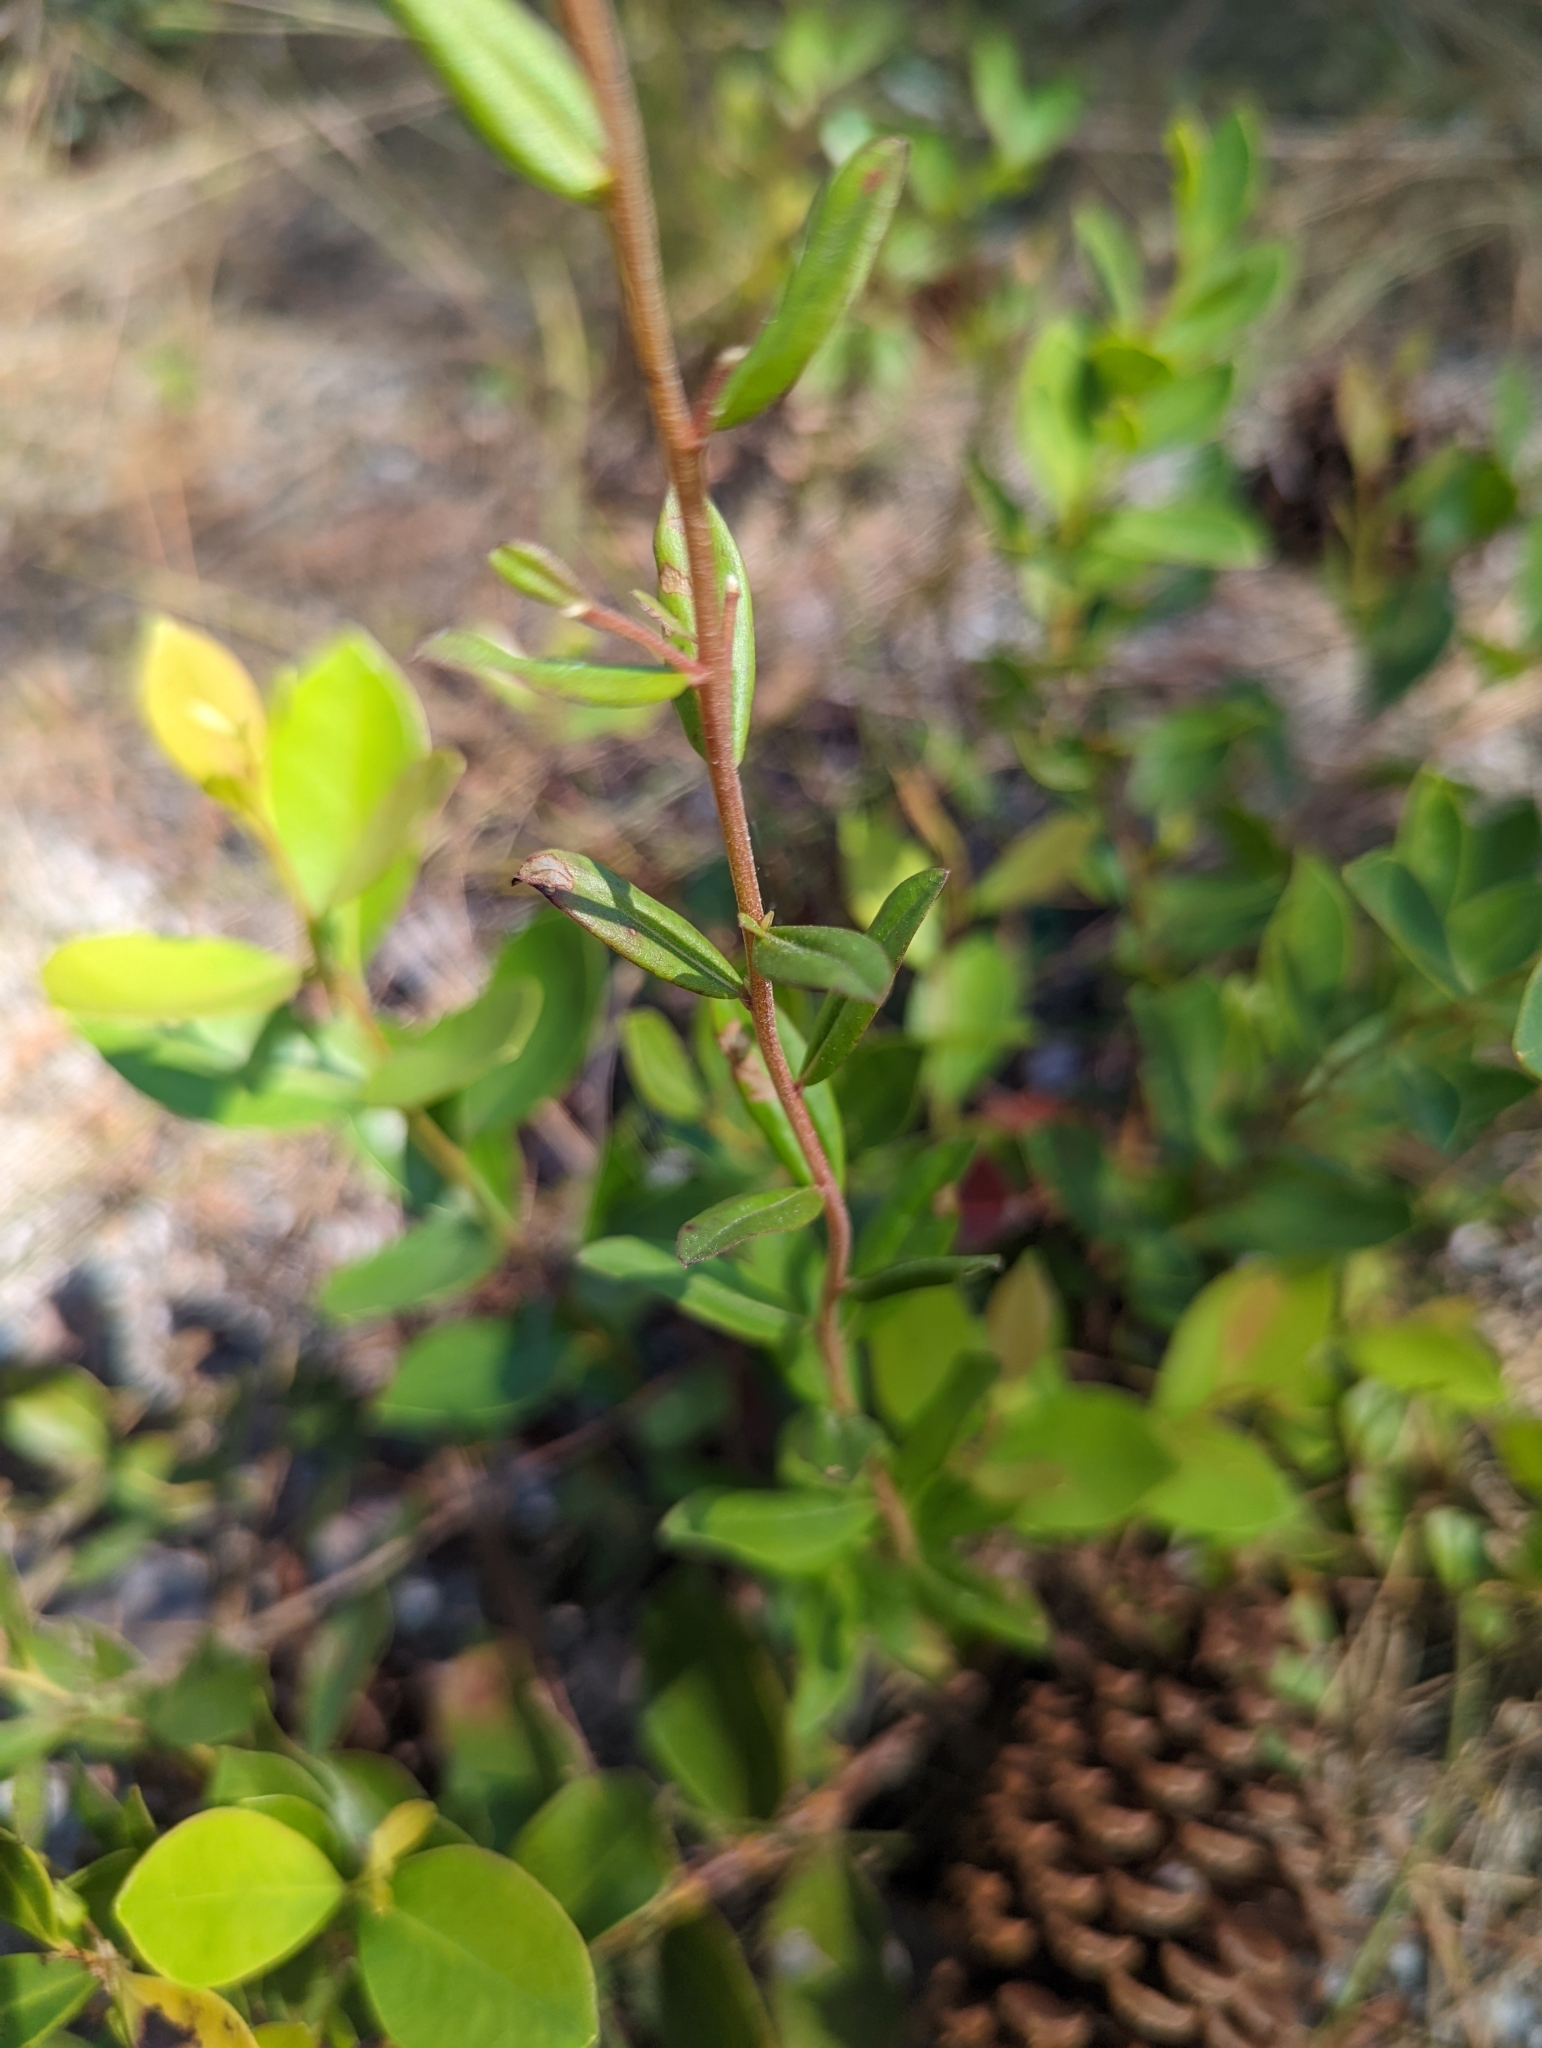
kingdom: Plantae
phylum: Tracheophyta
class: Magnoliopsida
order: Asterales
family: Asteraceae
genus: Solidago
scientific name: Solidago chapmanii
